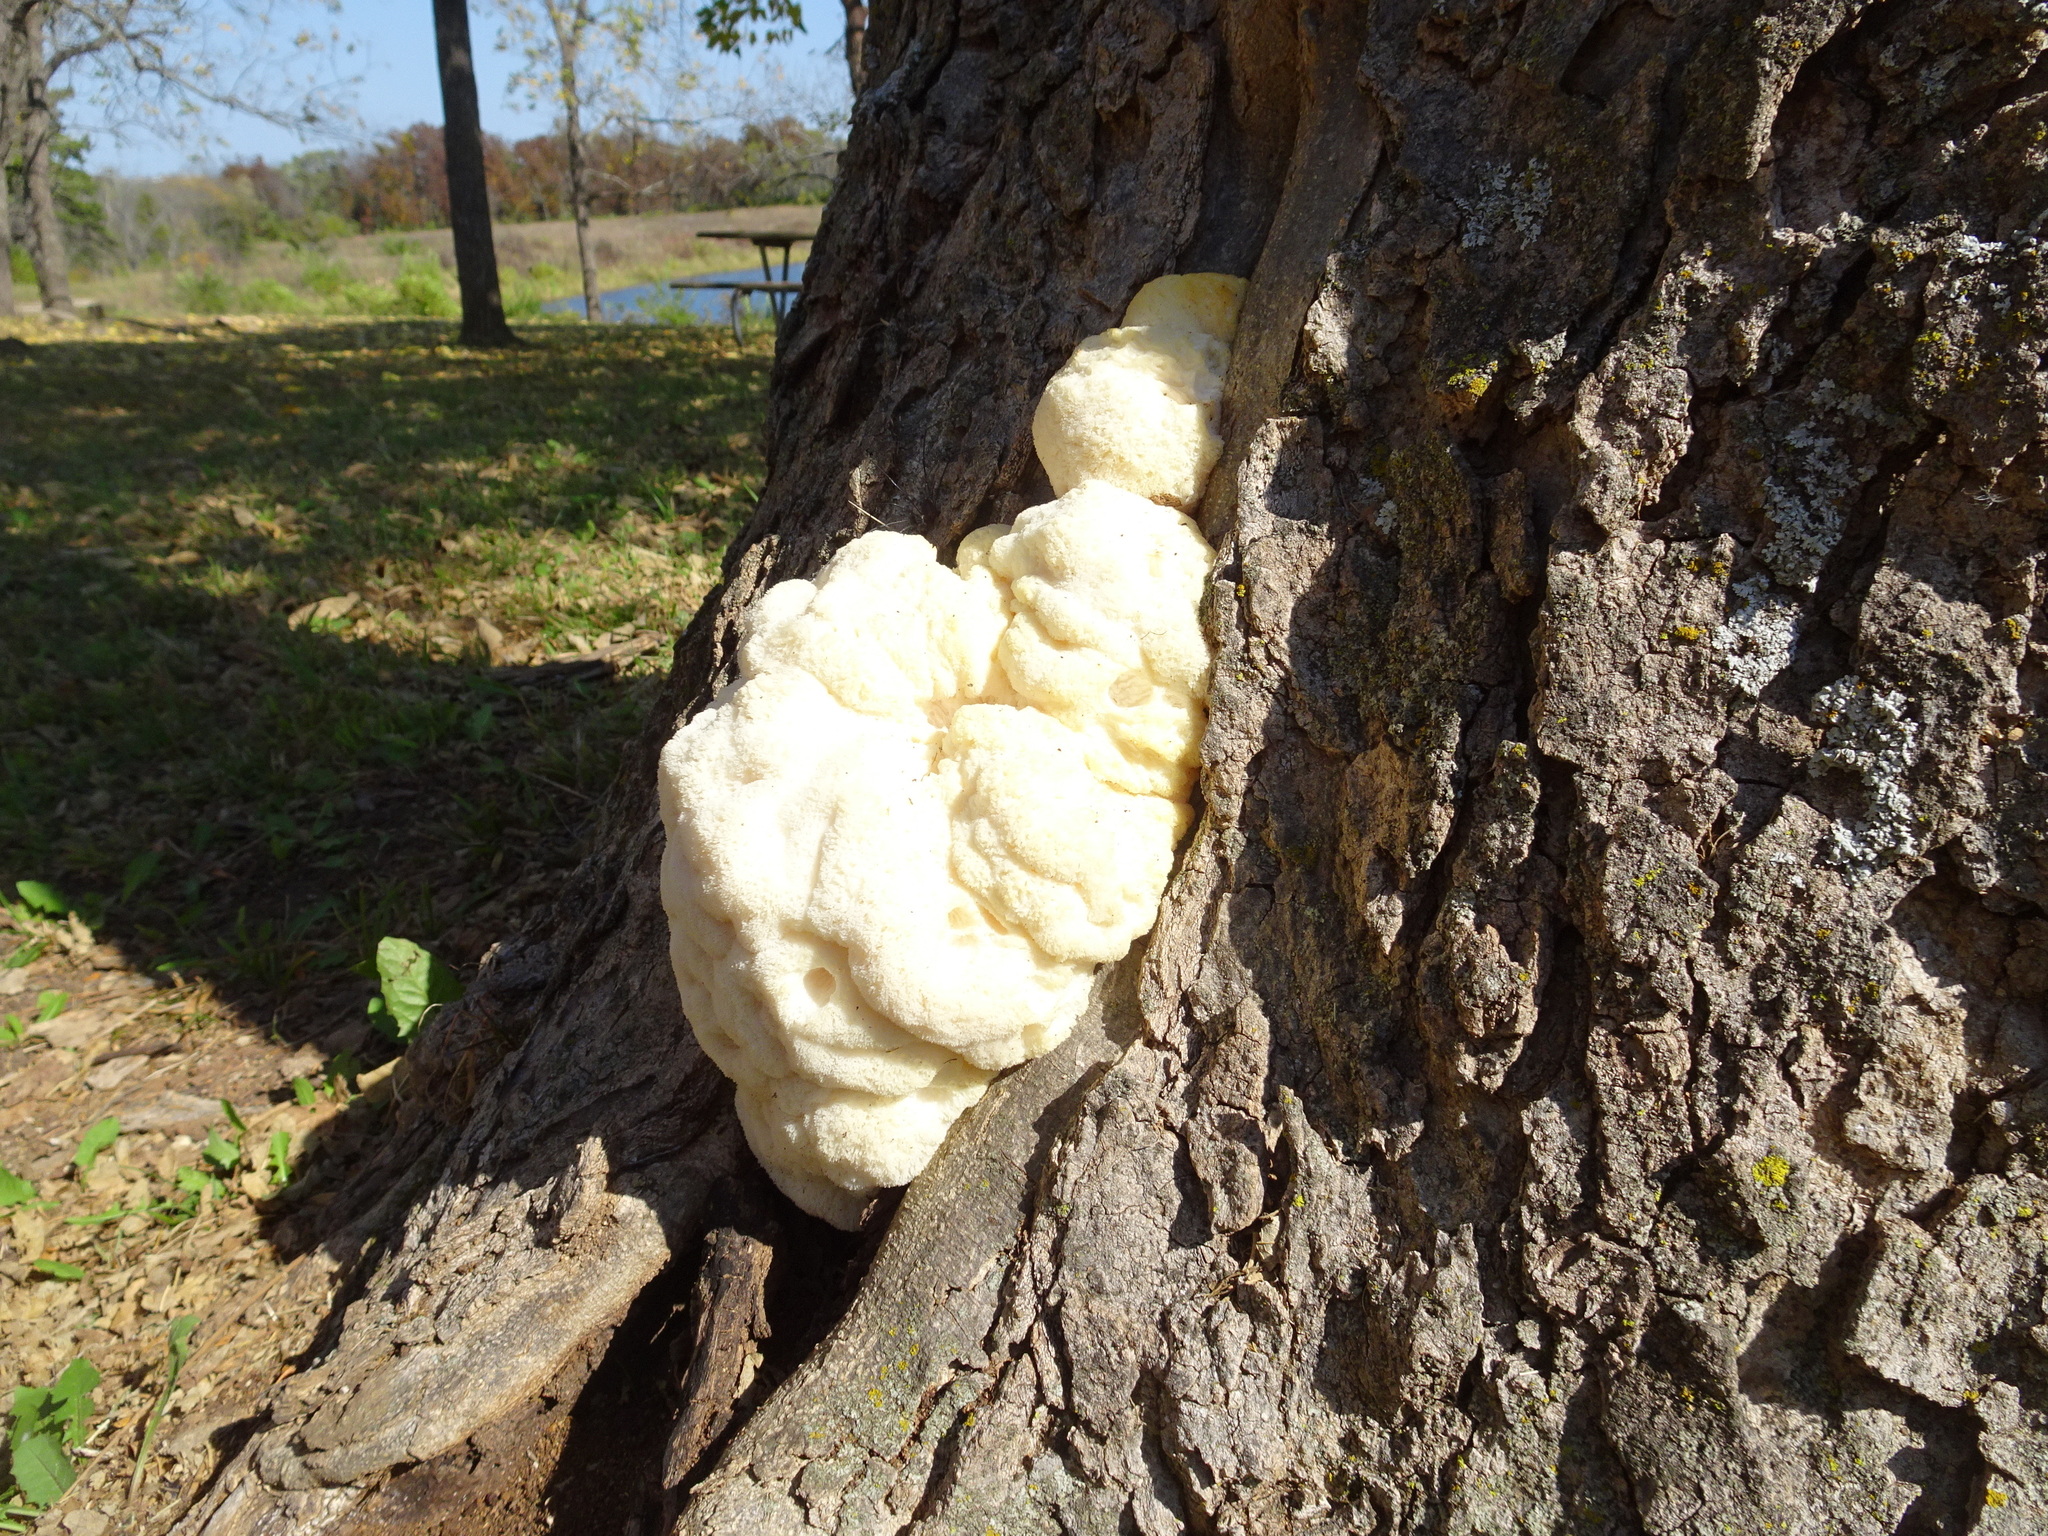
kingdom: Fungi
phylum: Basidiomycota
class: Agaricomycetes
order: Russulales
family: Hericiaceae
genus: Hericium
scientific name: Hericium erinaceus
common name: Bearded tooth
